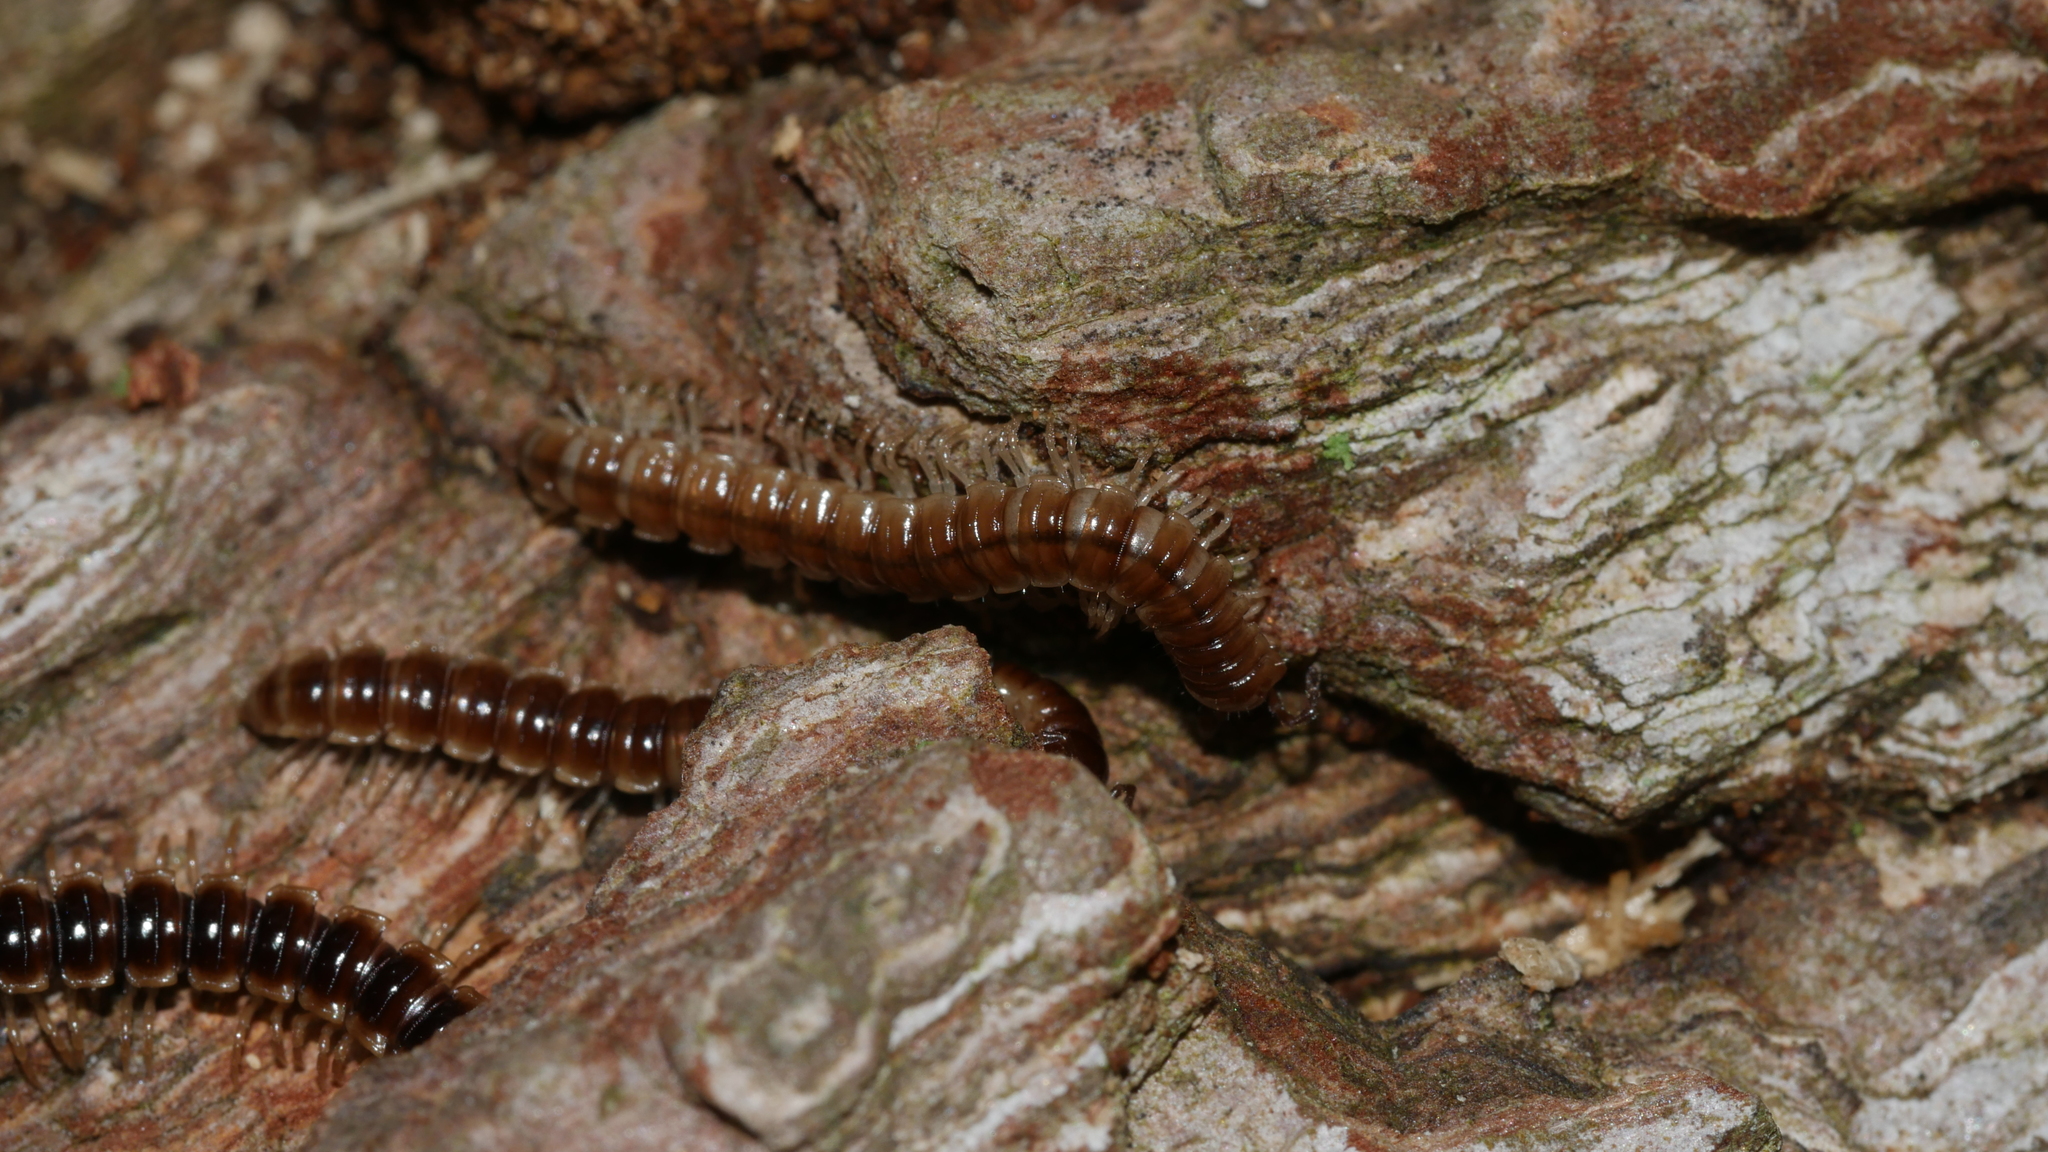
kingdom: Animalia
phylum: Arthropoda
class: Diplopoda
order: Polydesmida
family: Paradoxosomatidae
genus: Oxidus
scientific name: Oxidus gracilis
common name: Greenhouse millipede
